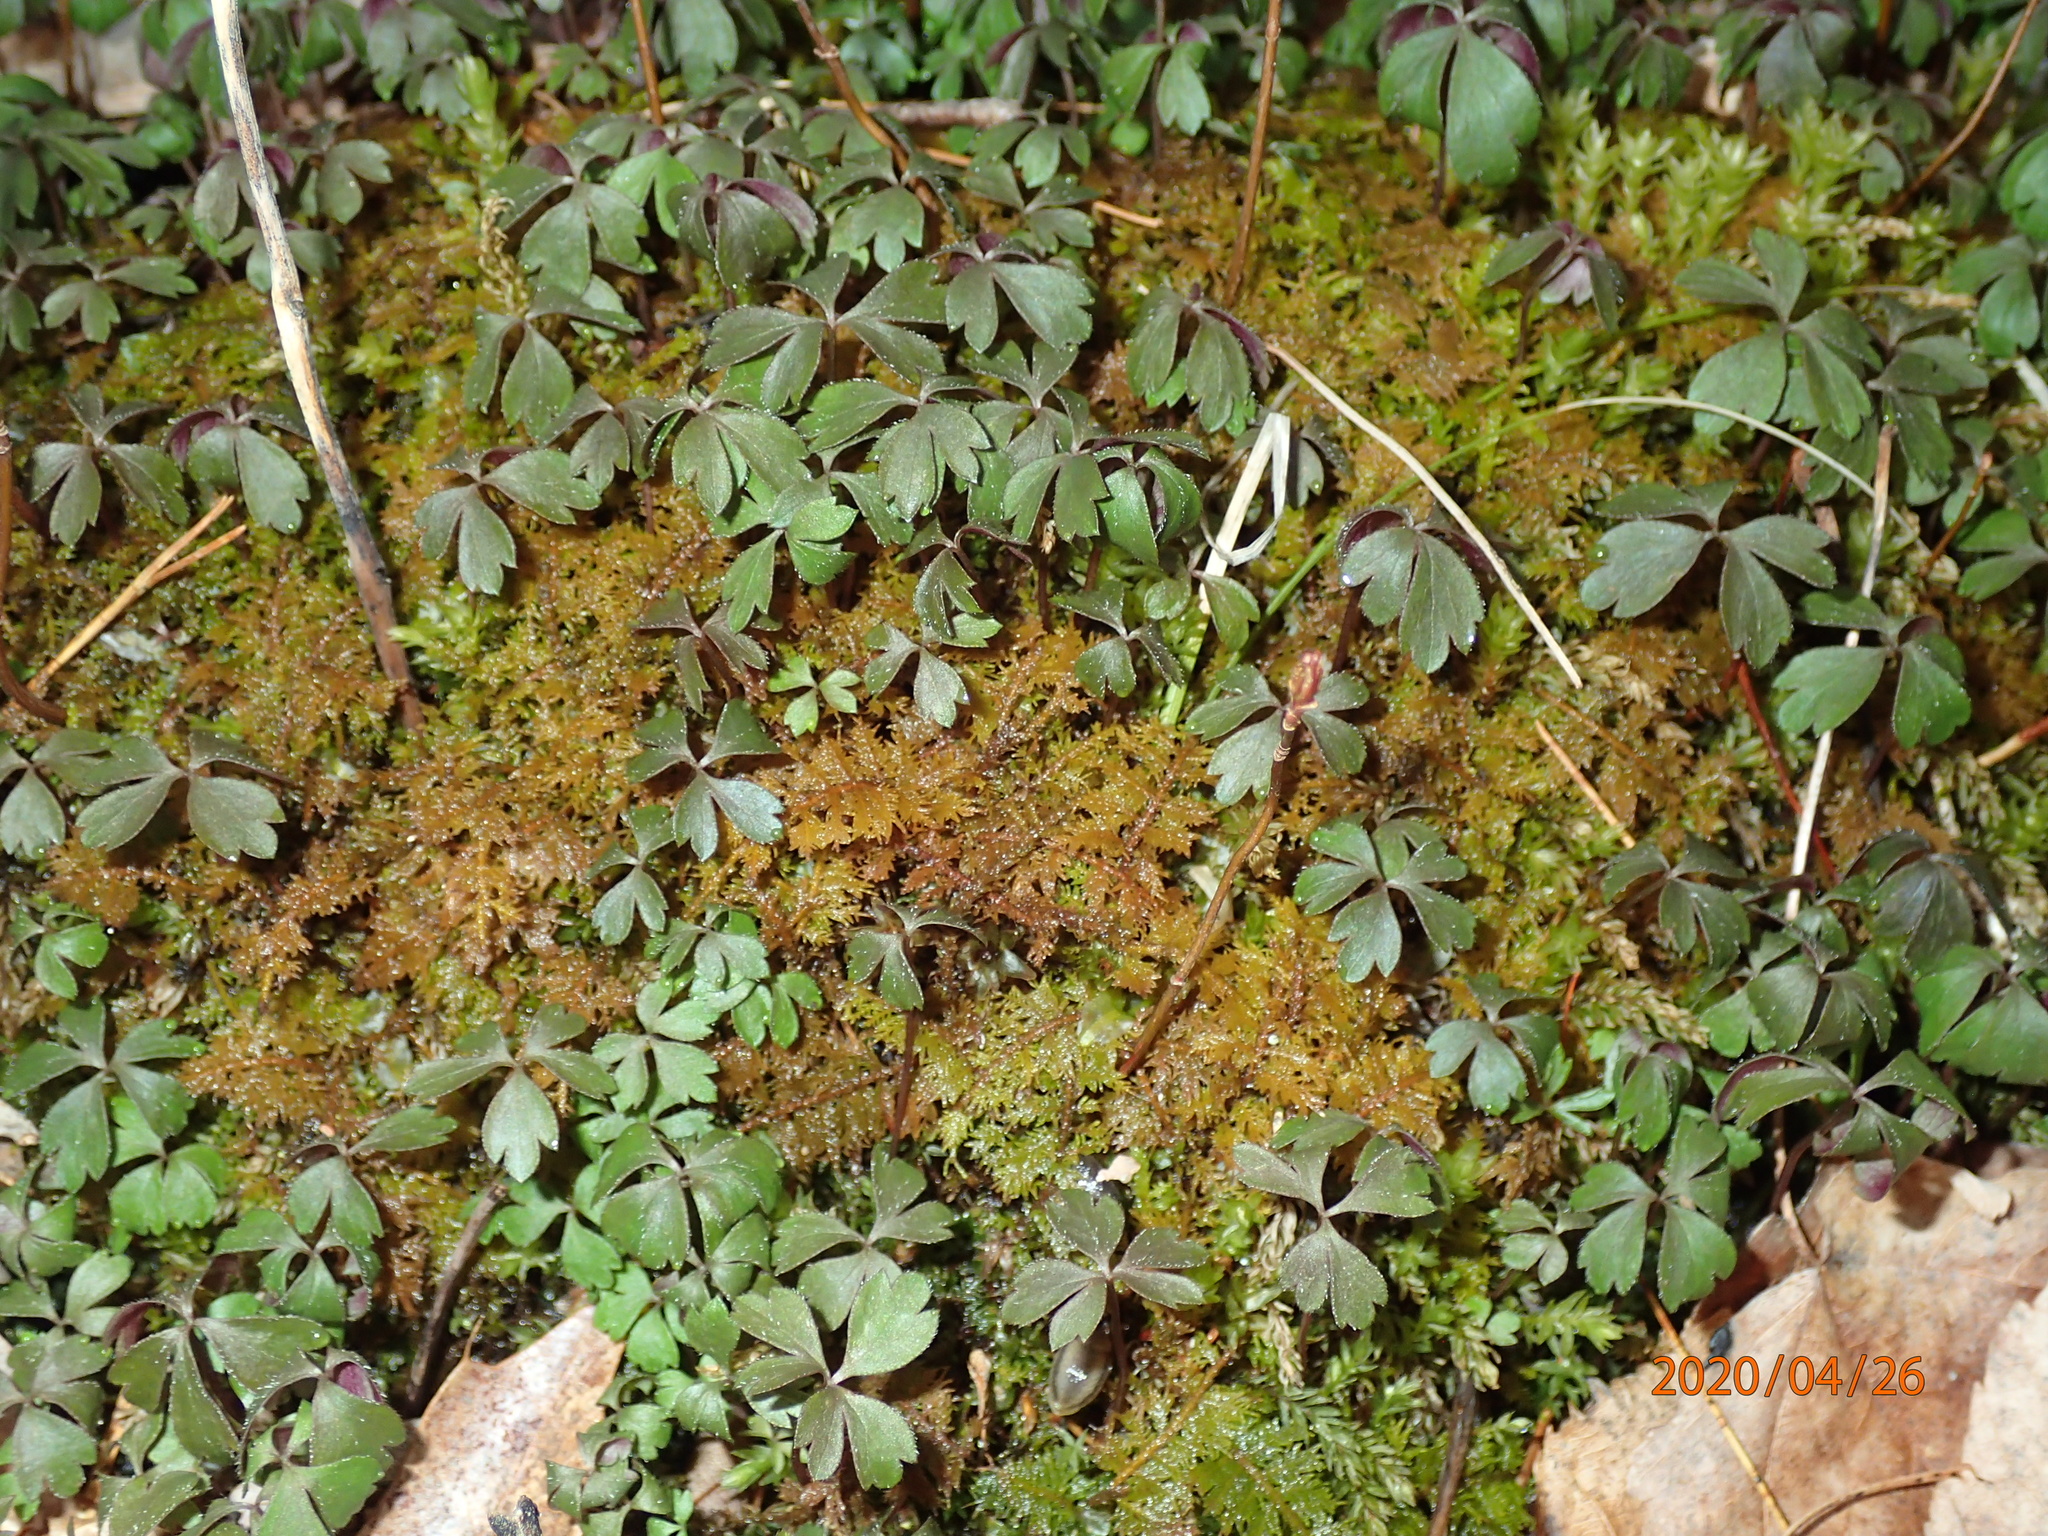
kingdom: Plantae
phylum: Tracheophyta
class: Magnoliopsida
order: Ranunculales
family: Ranunculaceae
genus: Anemone
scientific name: Anemone quinquefolia
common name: Wood anemone
